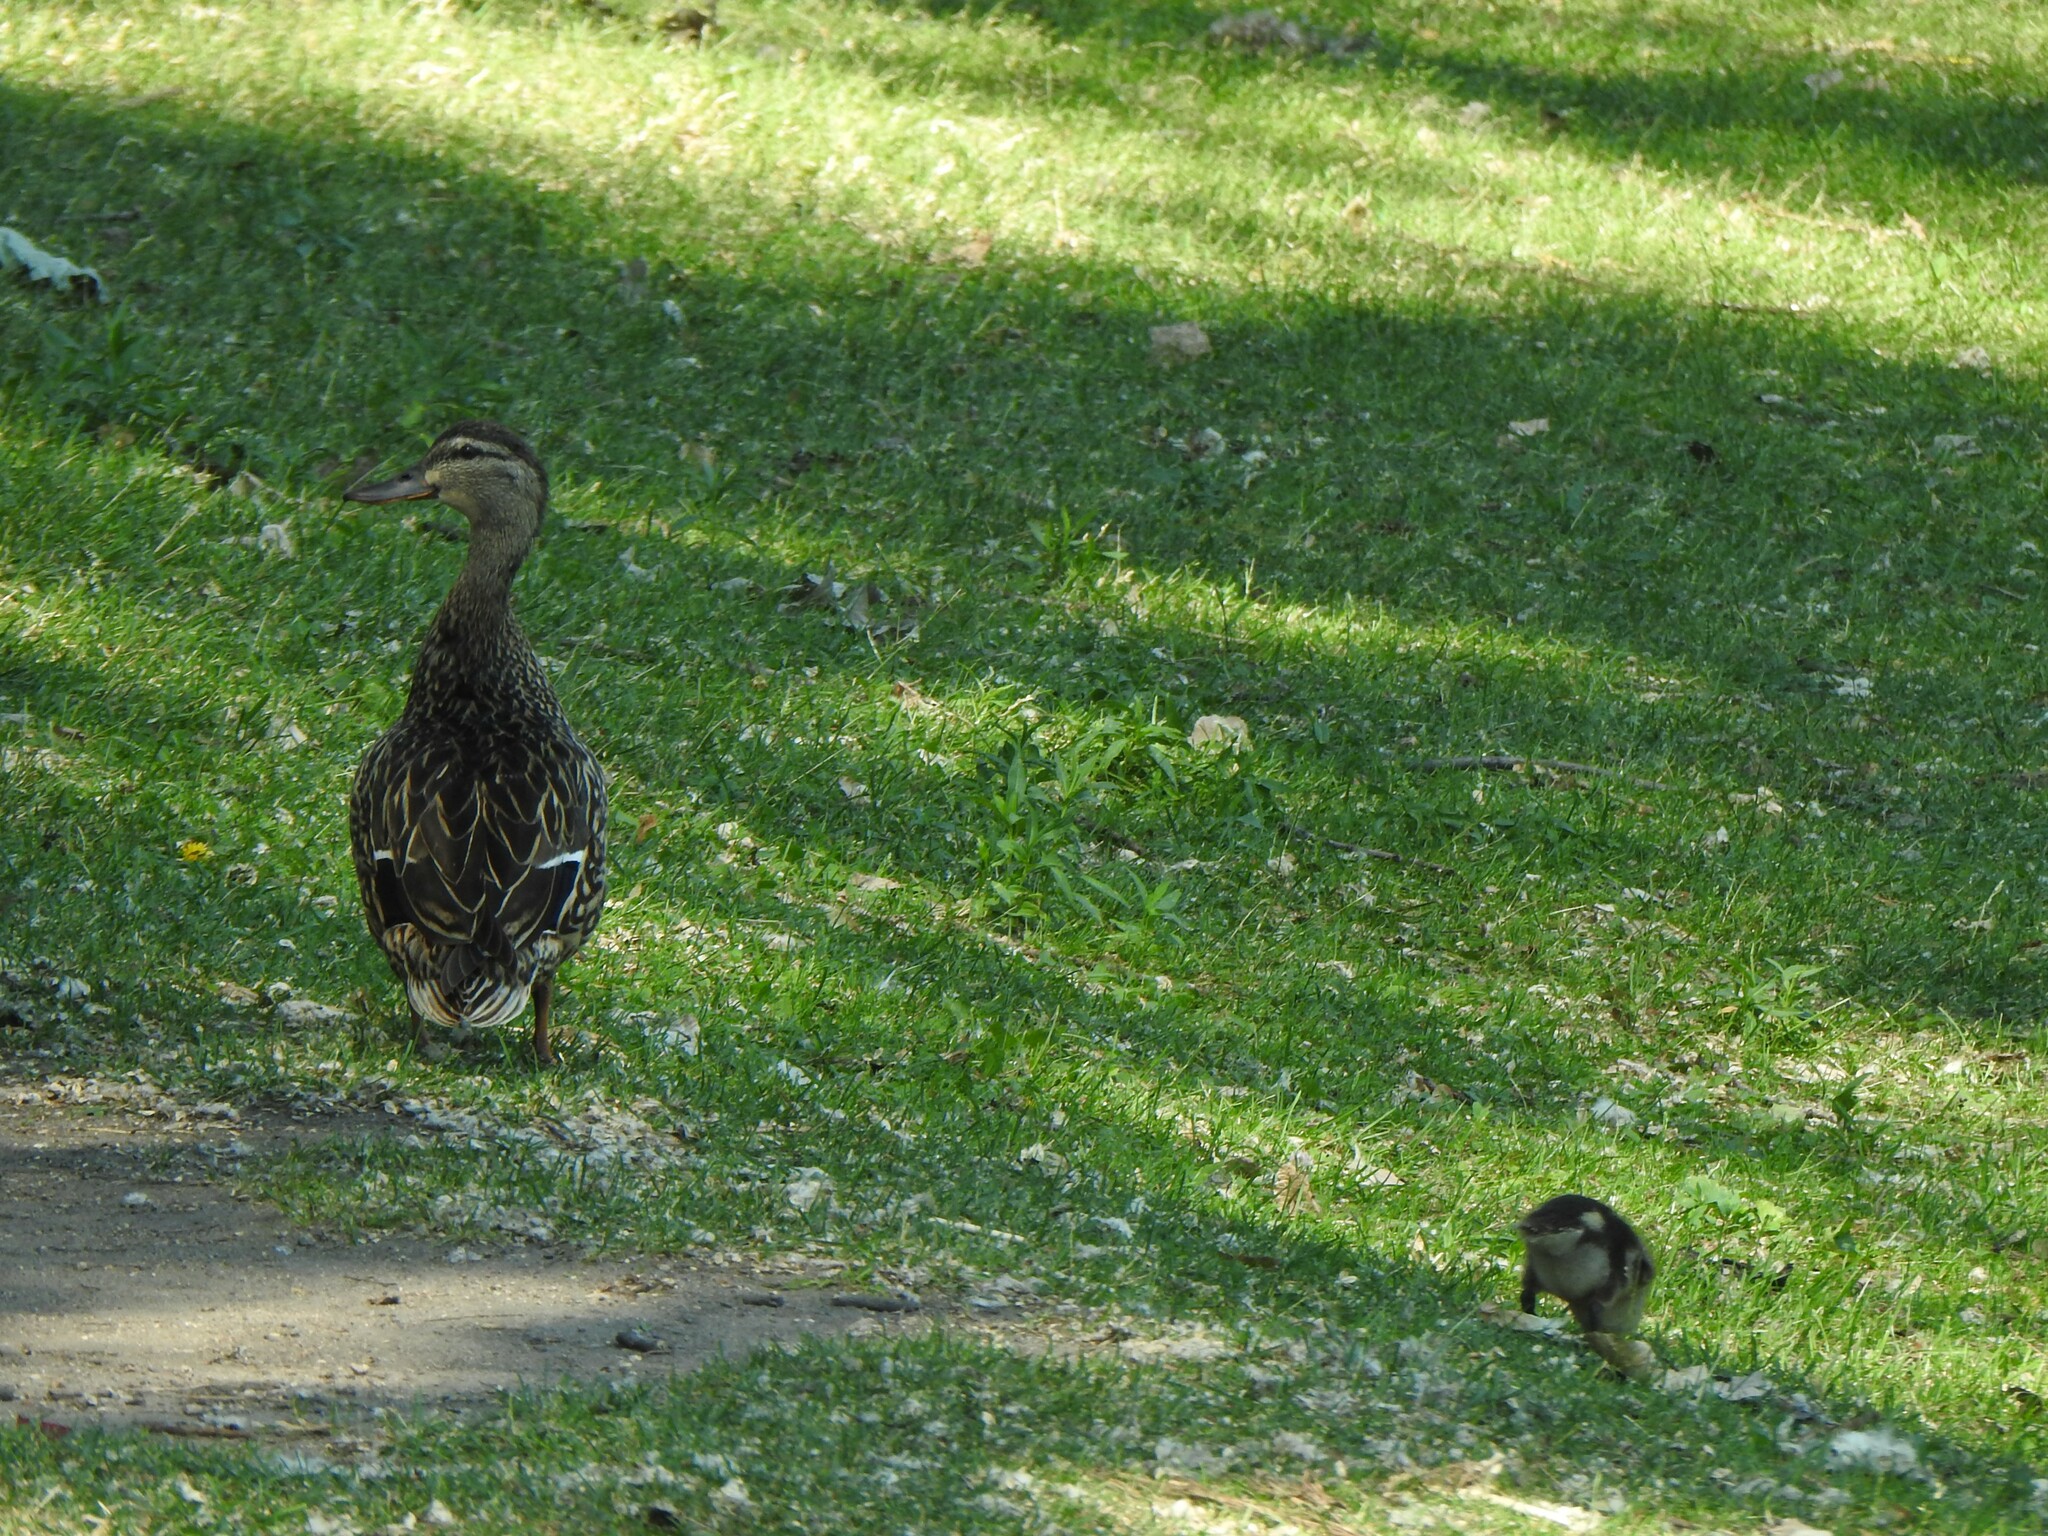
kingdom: Animalia
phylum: Chordata
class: Aves
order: Anseriformes
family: Anatidae
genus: Anas
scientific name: Anas platyrhynchos
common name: Mallard
